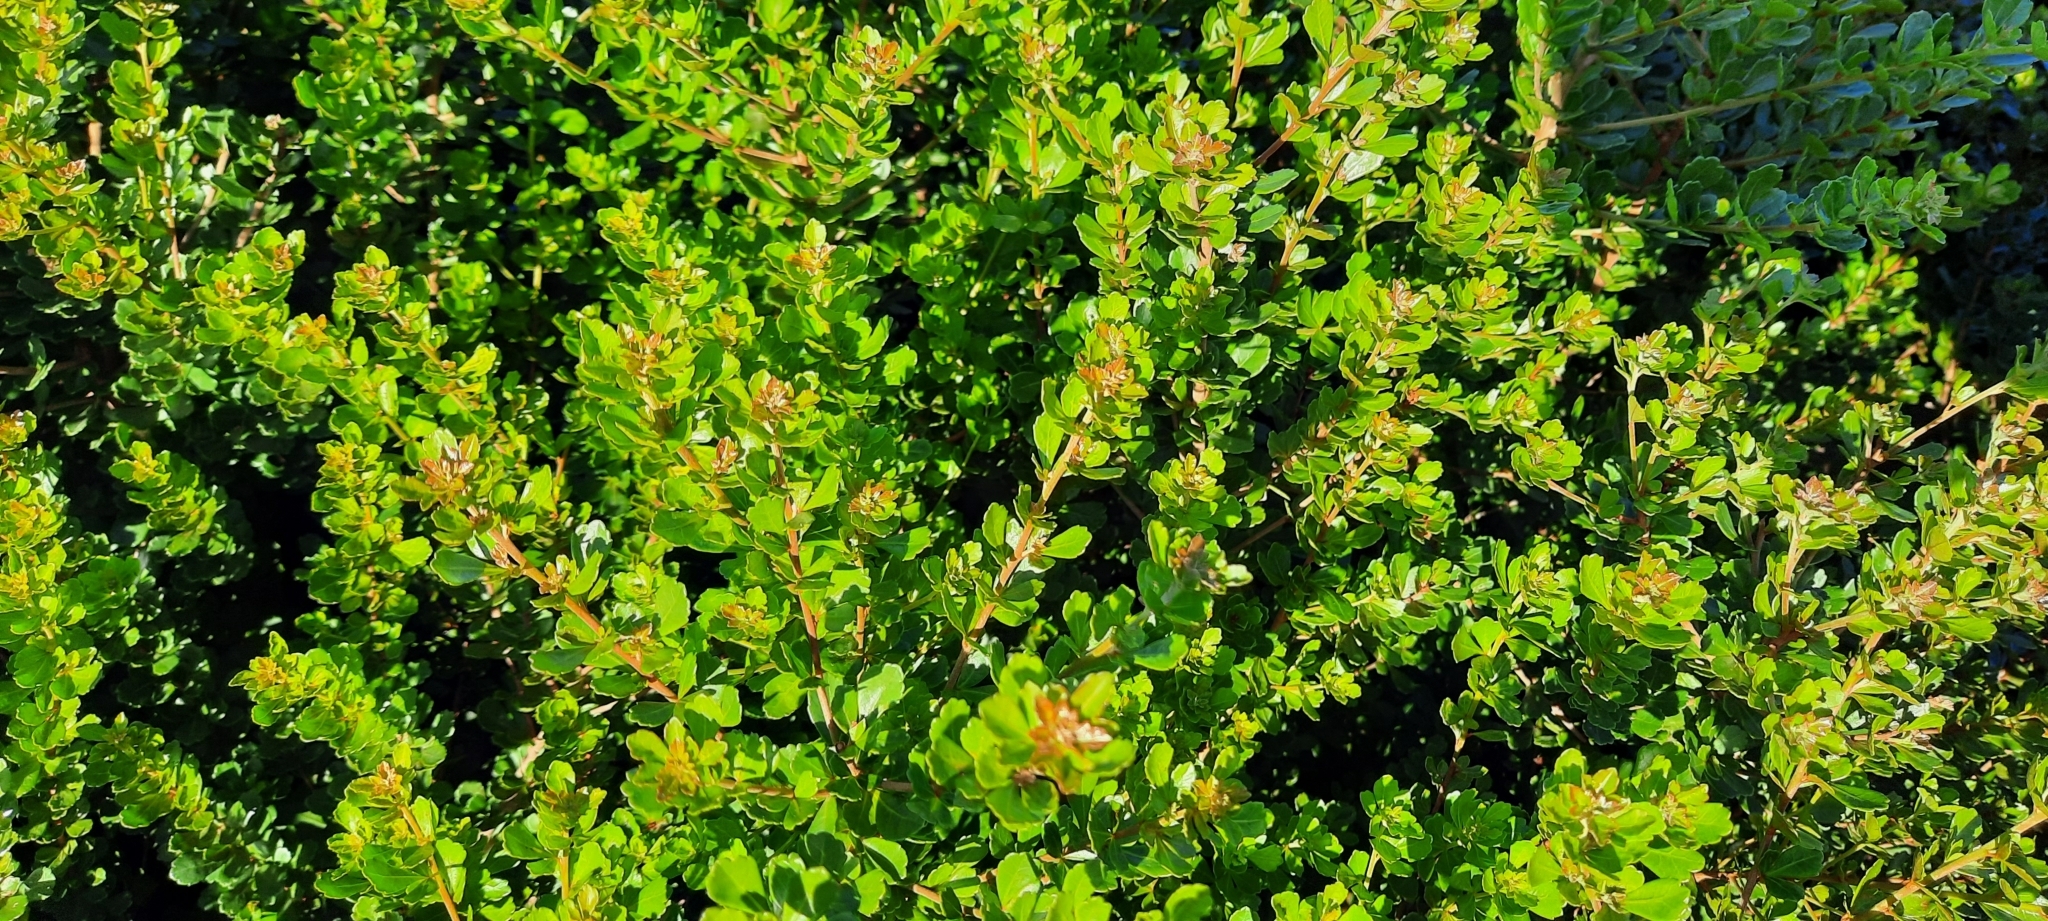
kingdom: Plantae
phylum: Tracheophyta
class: Magnoliopsida
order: Sapindales
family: Anacardiaceae
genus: Searsia
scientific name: Searsia crenata
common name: Crowberry
